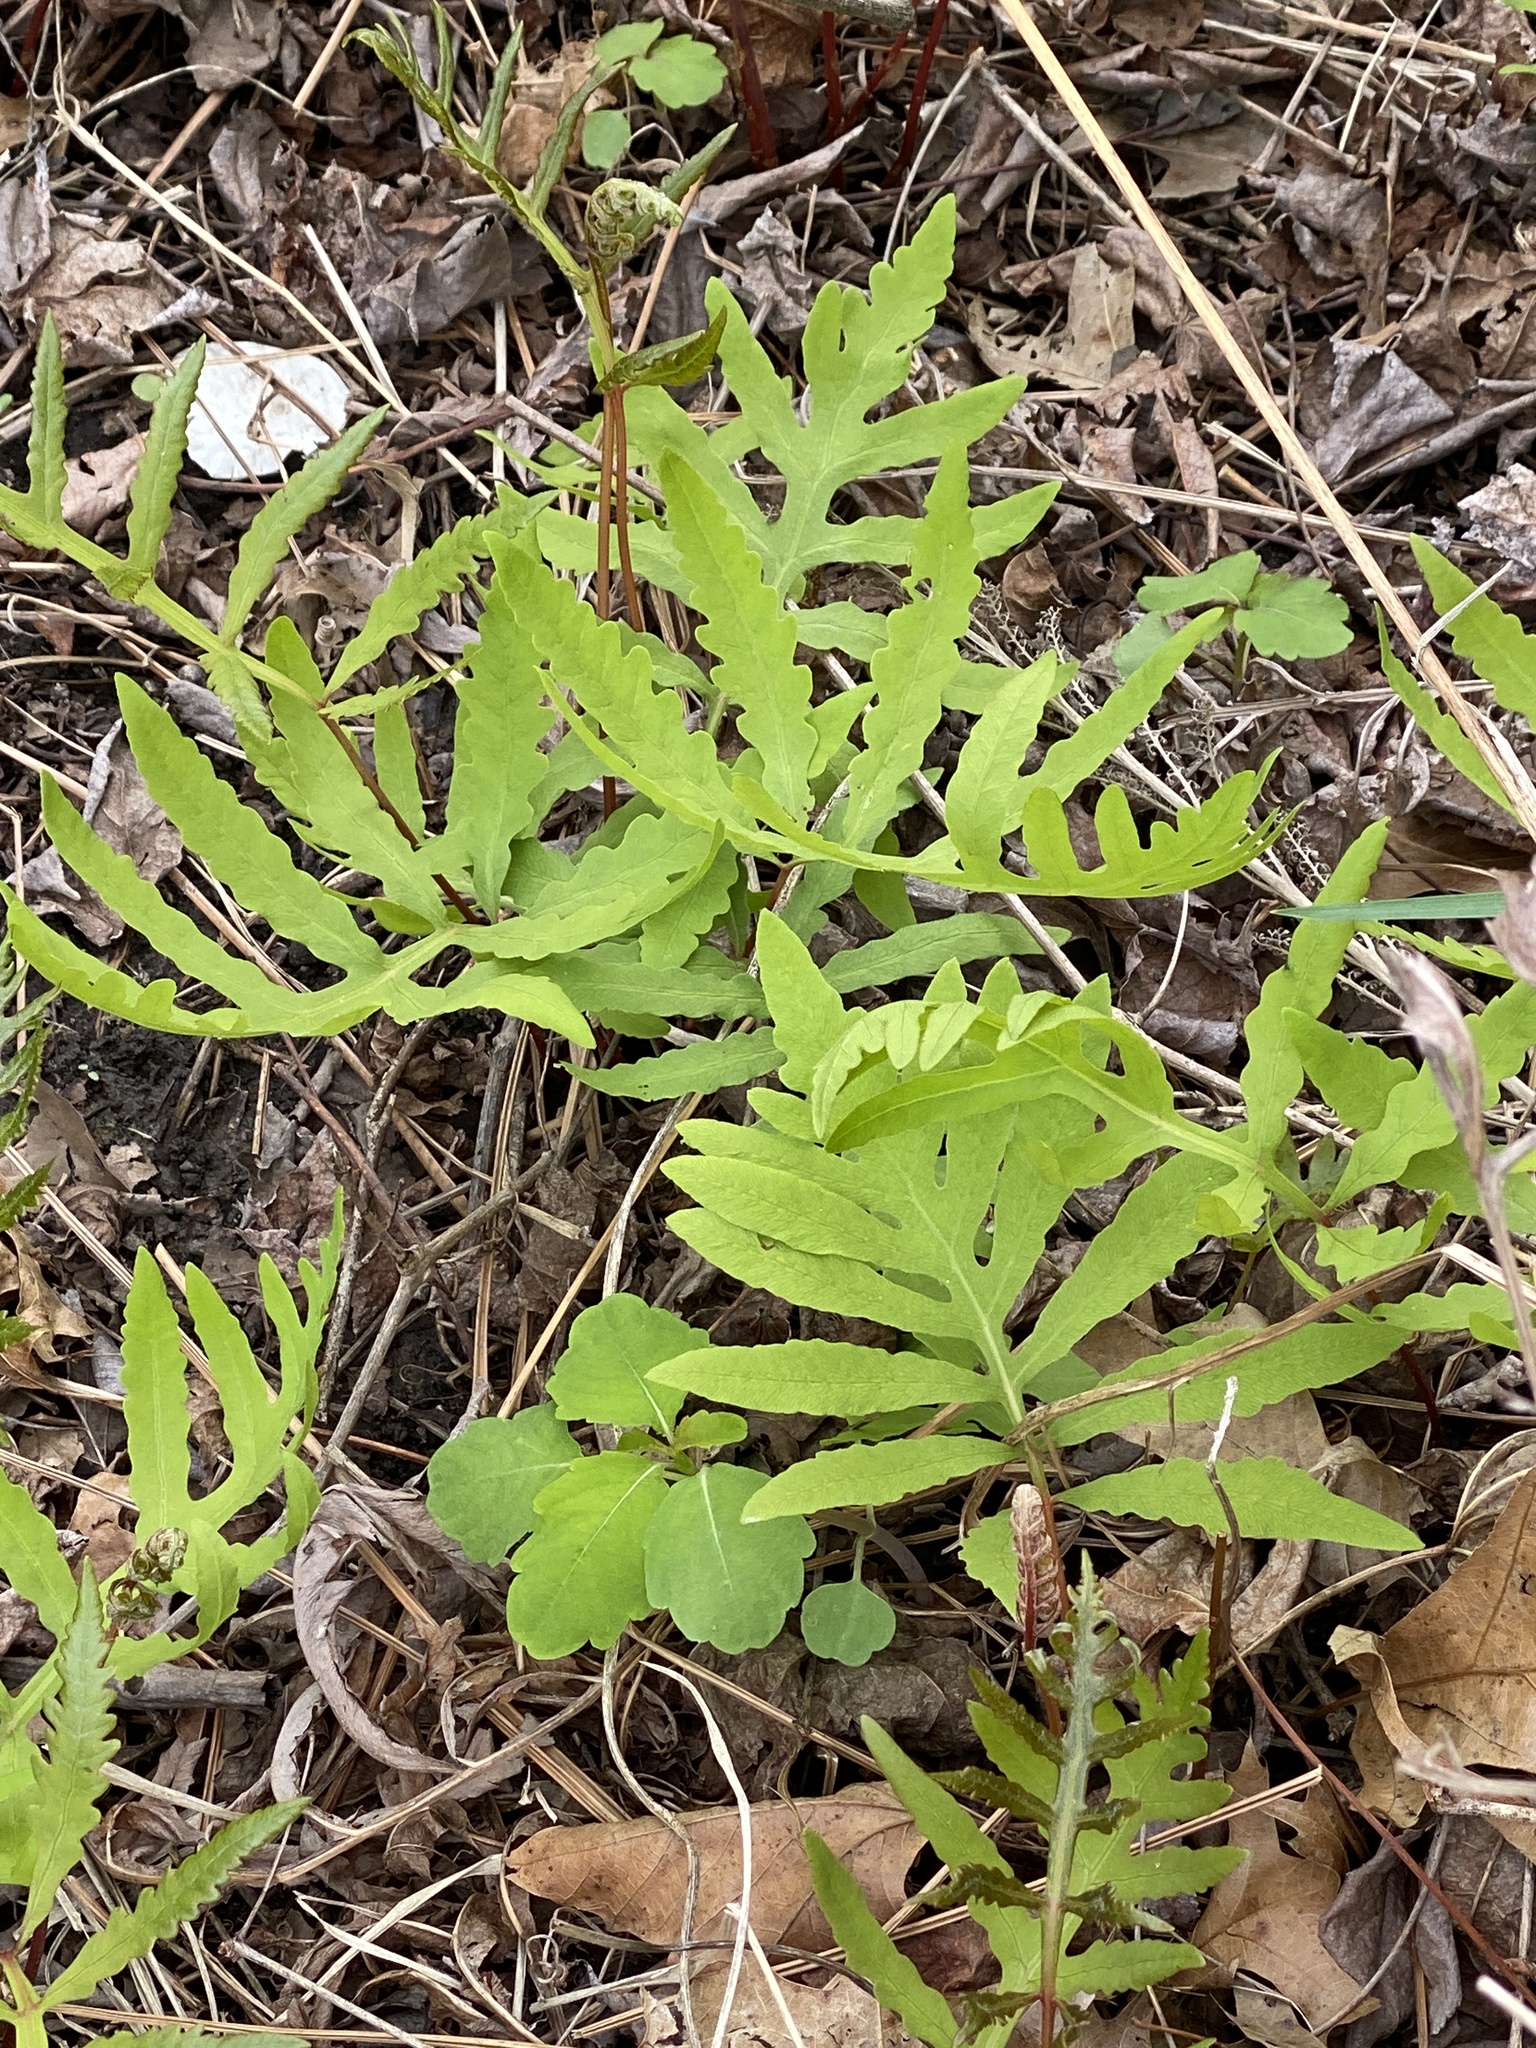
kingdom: Plantae
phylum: Tracheophyta
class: Polypodiopsida
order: Polypodiales
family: Onocleaceae
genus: Onoclea
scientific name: Onoclea sensibilis
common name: Sensitive fern
